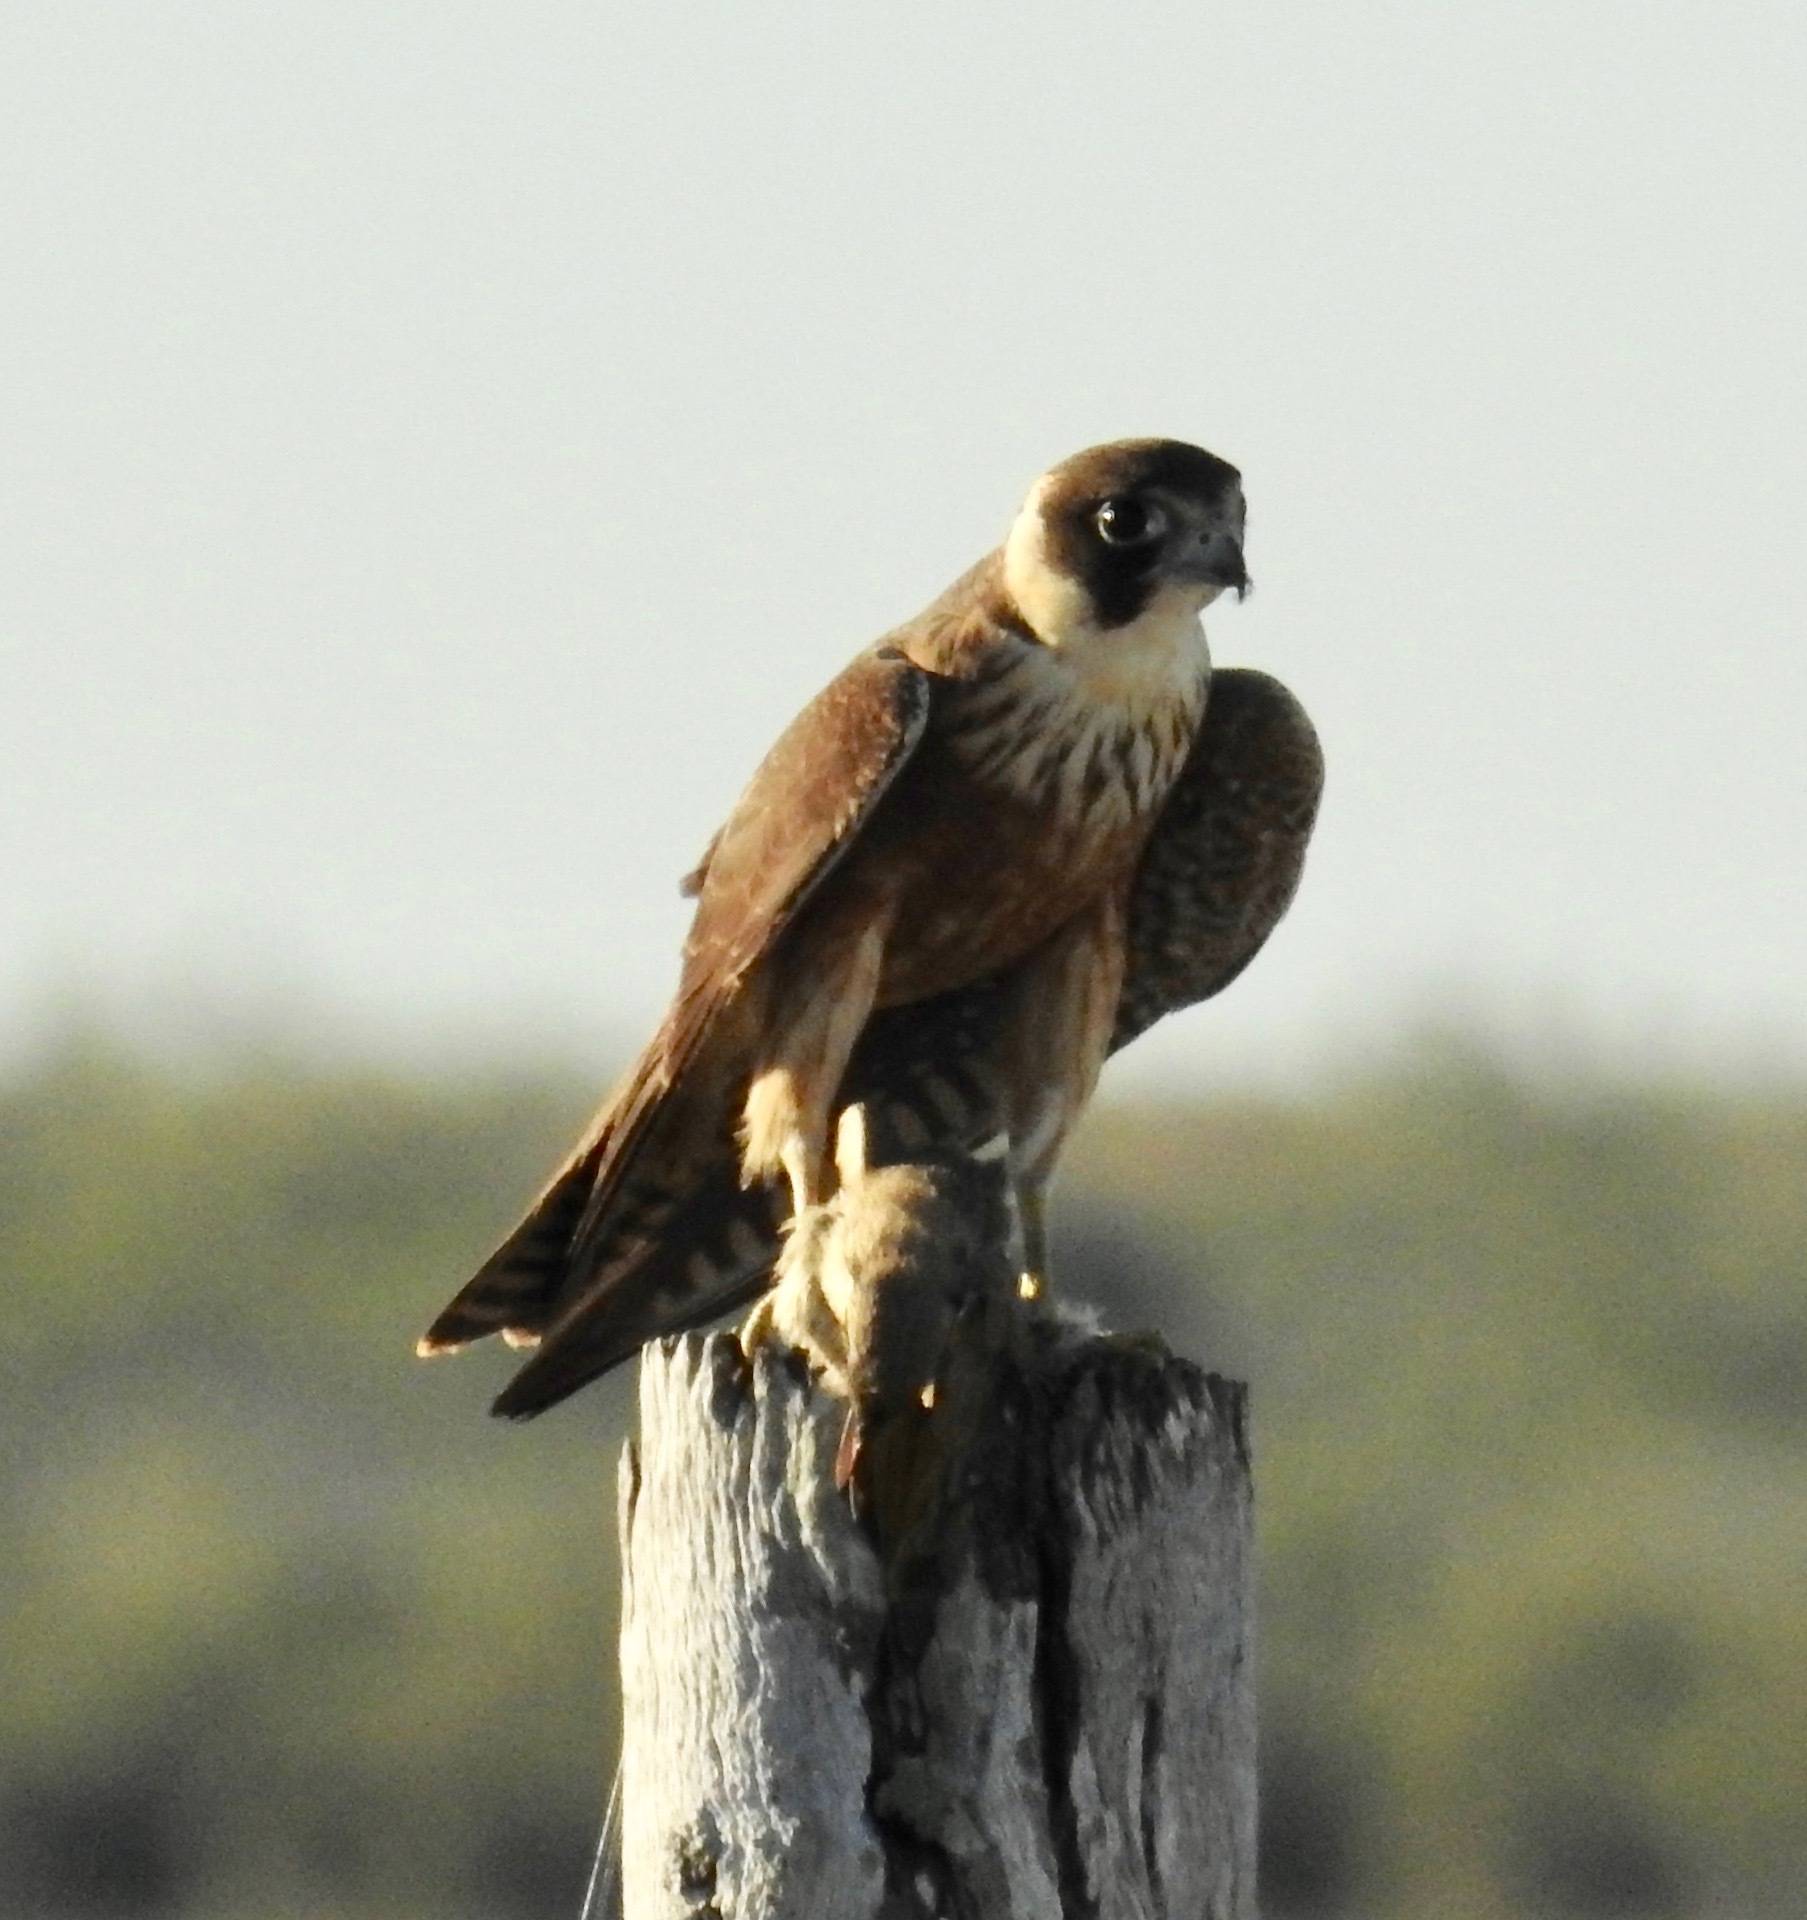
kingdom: Animalia
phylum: Chordata
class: Aves
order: Falconiformes
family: Falconidae
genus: Falco
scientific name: Falco longipennis
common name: Australian hobby
